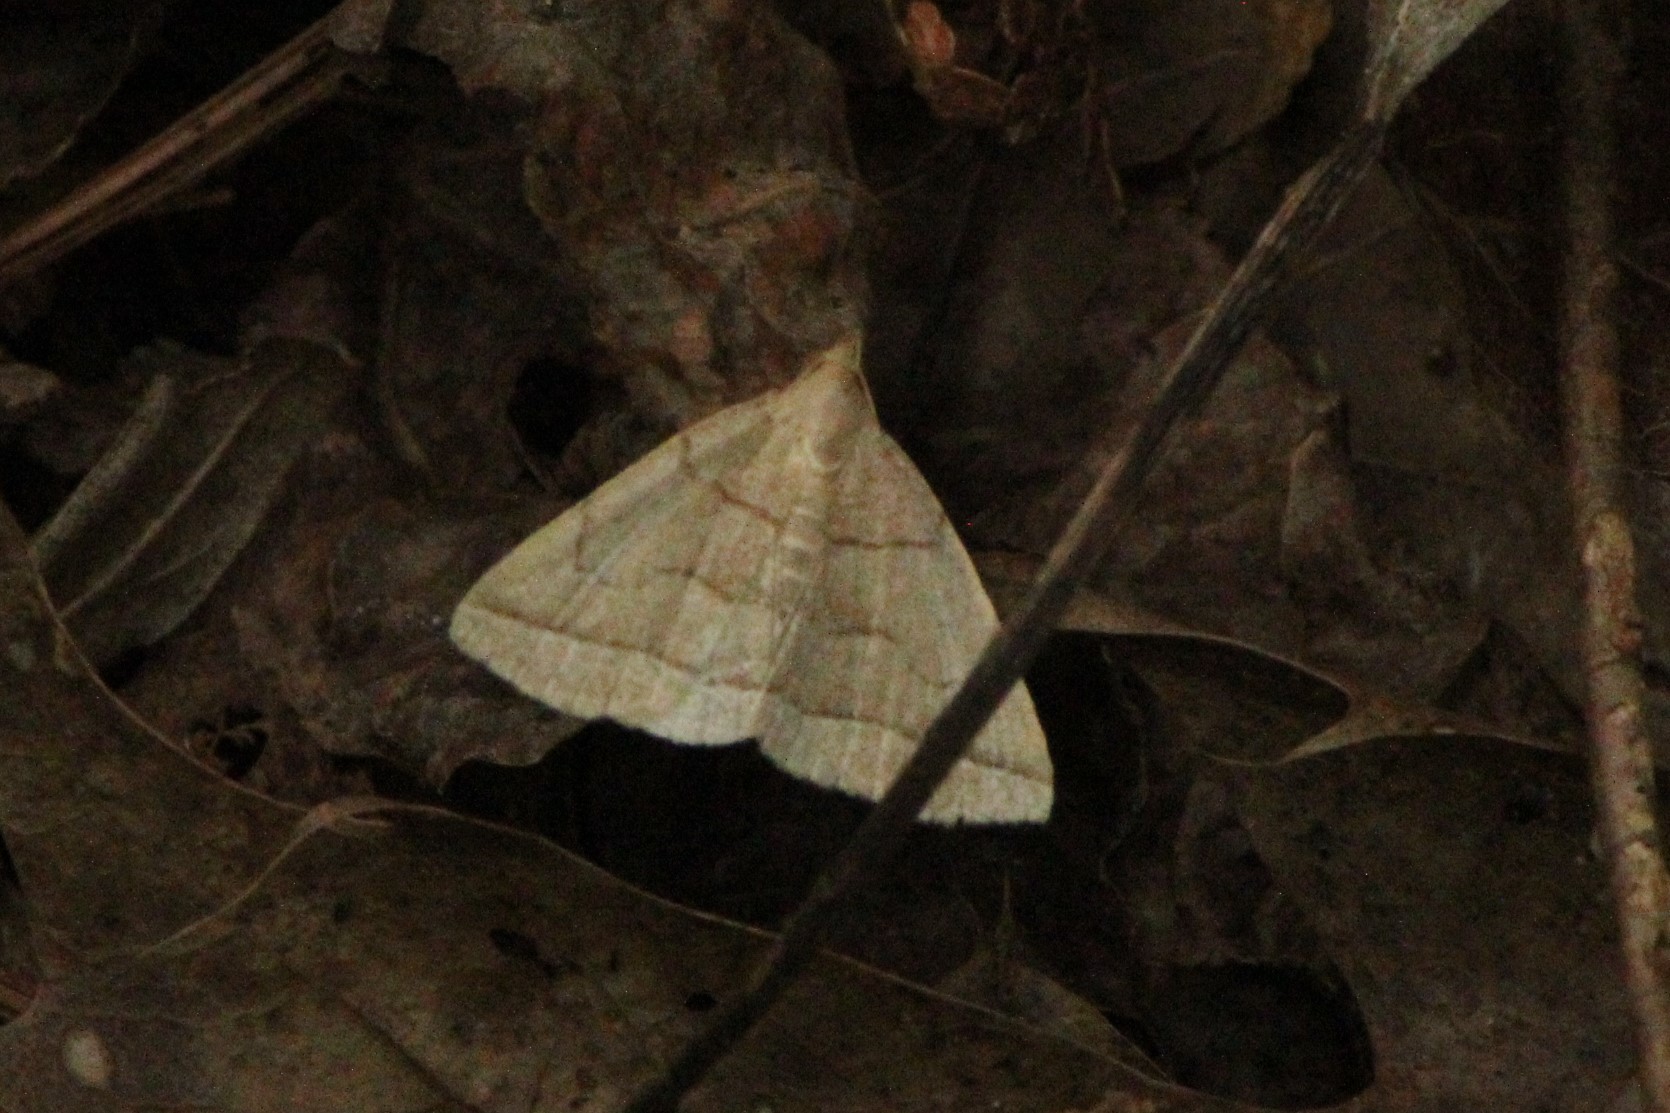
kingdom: Animalia
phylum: Arthropoda
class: Insecta
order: Lepidoptera
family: Erebidae
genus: Zanclognatha
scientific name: Zanclognatha cruralis
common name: Early fan-foot
